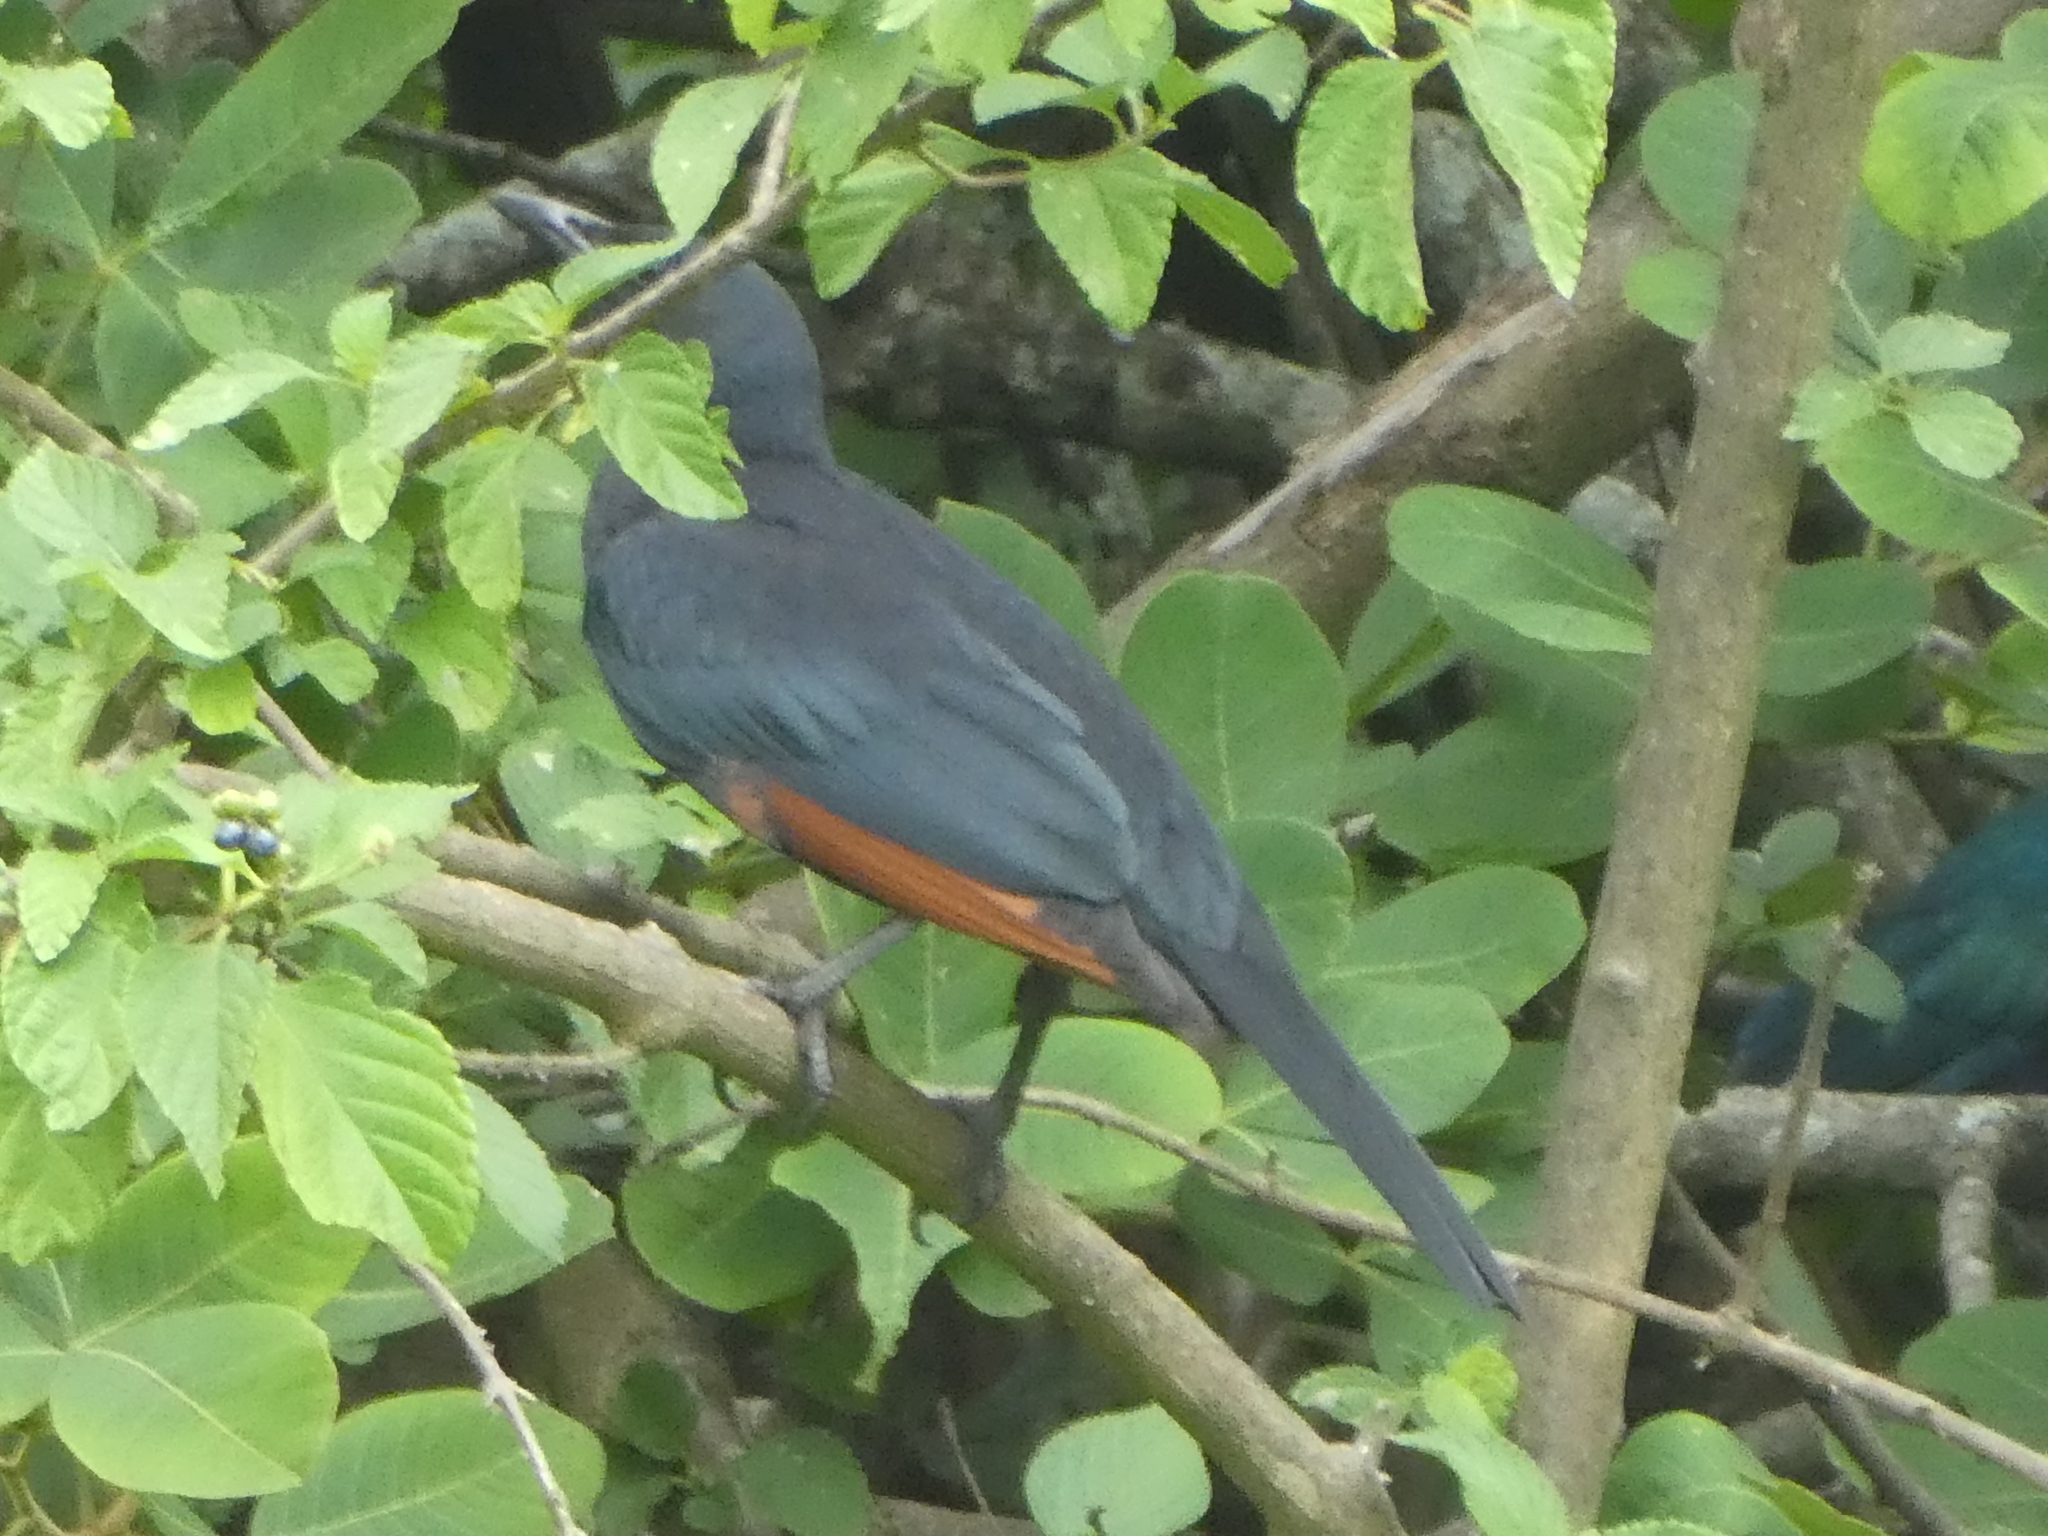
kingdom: Animalia
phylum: Chordata
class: Aves
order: Passeriformes
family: Sturnidae
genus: Onychognathus
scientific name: Onychognathus morio
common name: Red-winged starling
